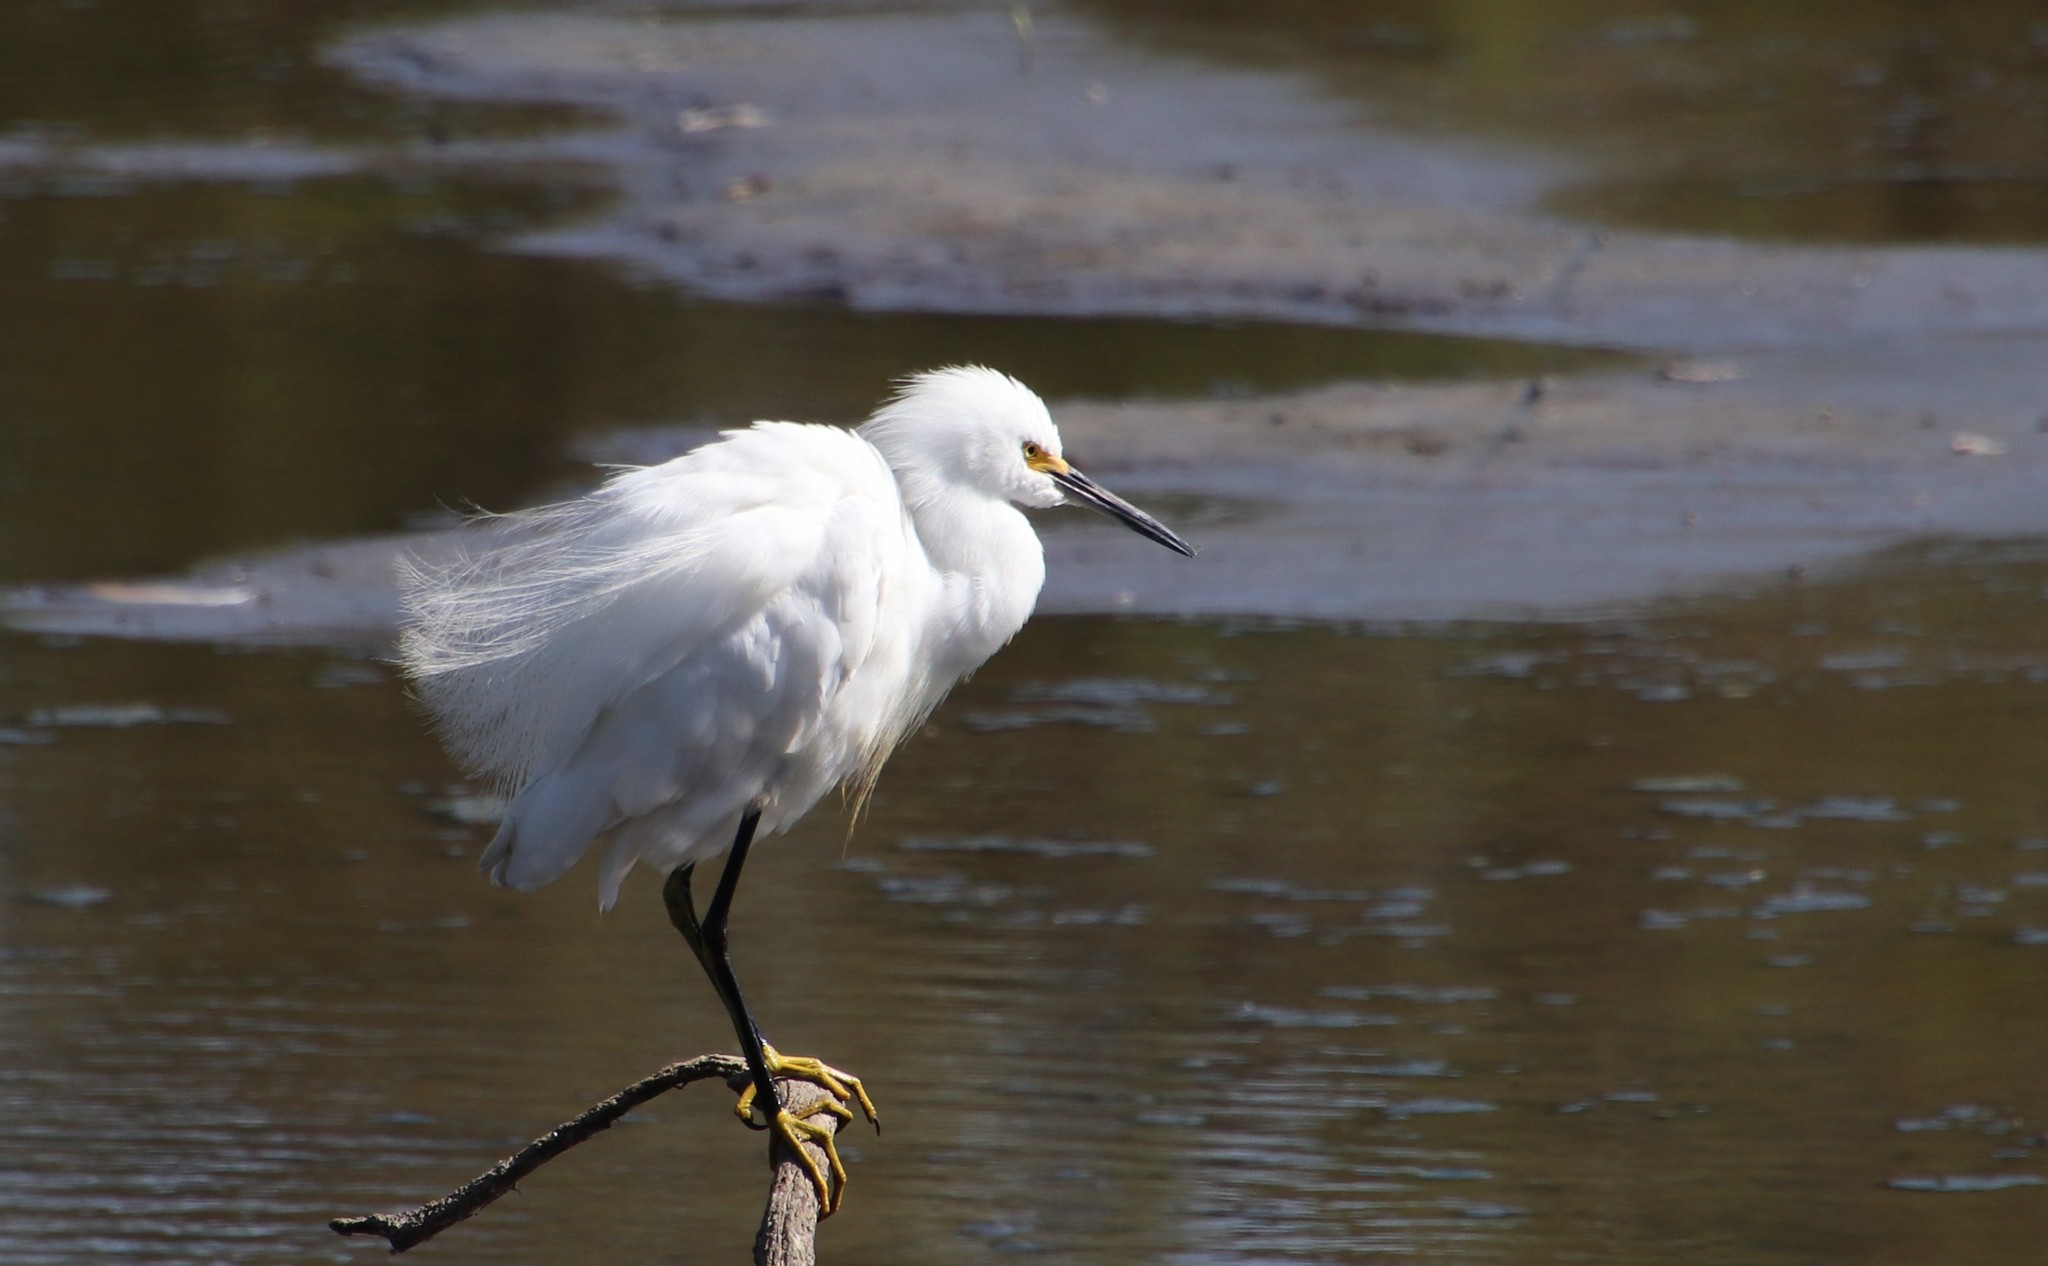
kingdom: Animalia
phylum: Chordata
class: Aves
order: Pelecaniformes
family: Ardeidae
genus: Egretta
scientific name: Egretta thula
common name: Snowy egret
